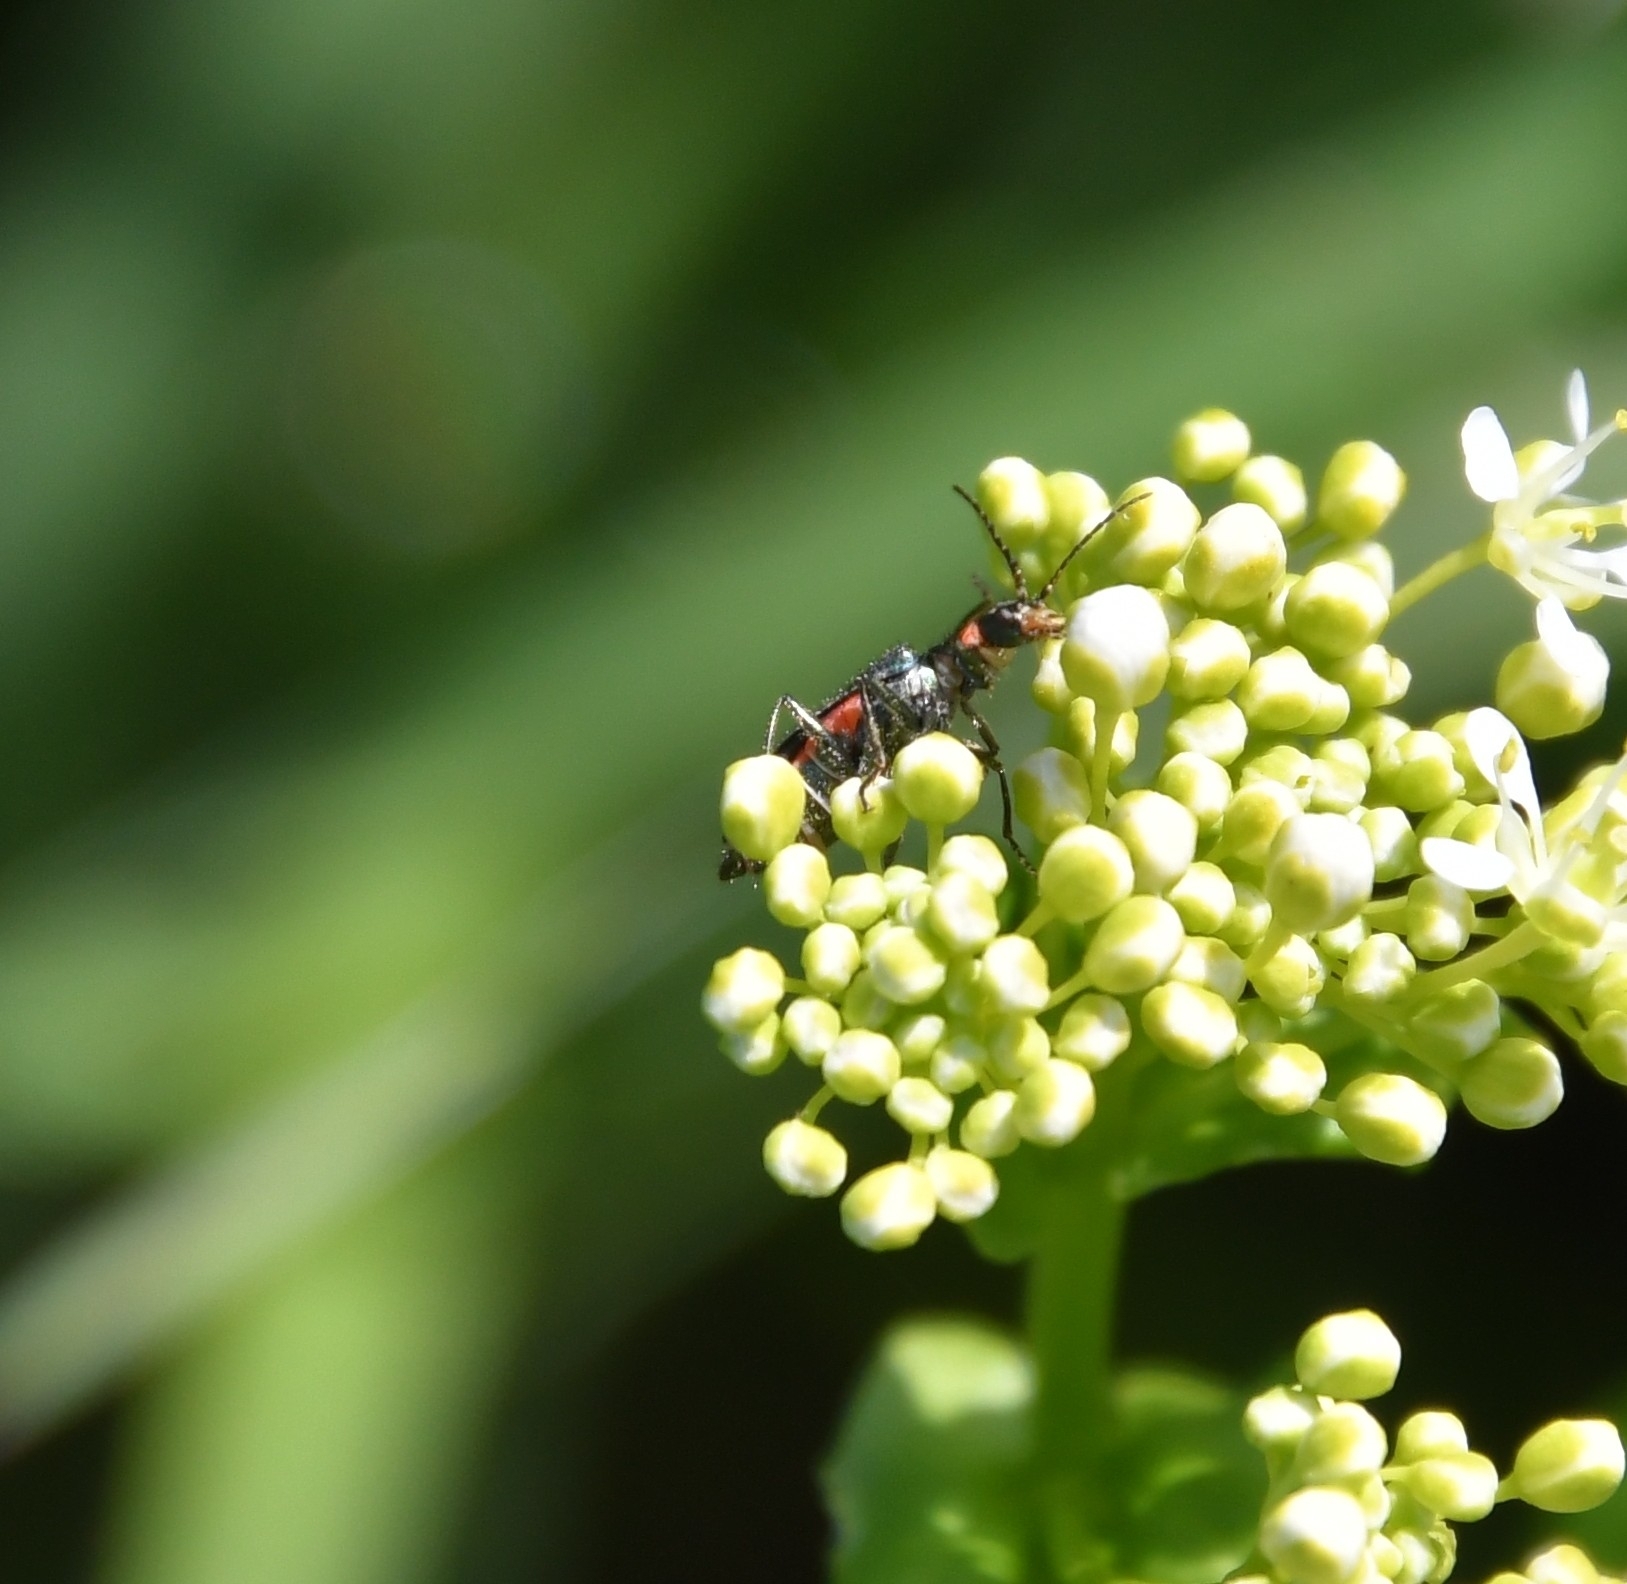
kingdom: Animalia
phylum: Arthropoda
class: Insecta
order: Coleoptera
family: Melyridae
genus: Malachius
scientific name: Malachius bipustulatus
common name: Malachite beetle
